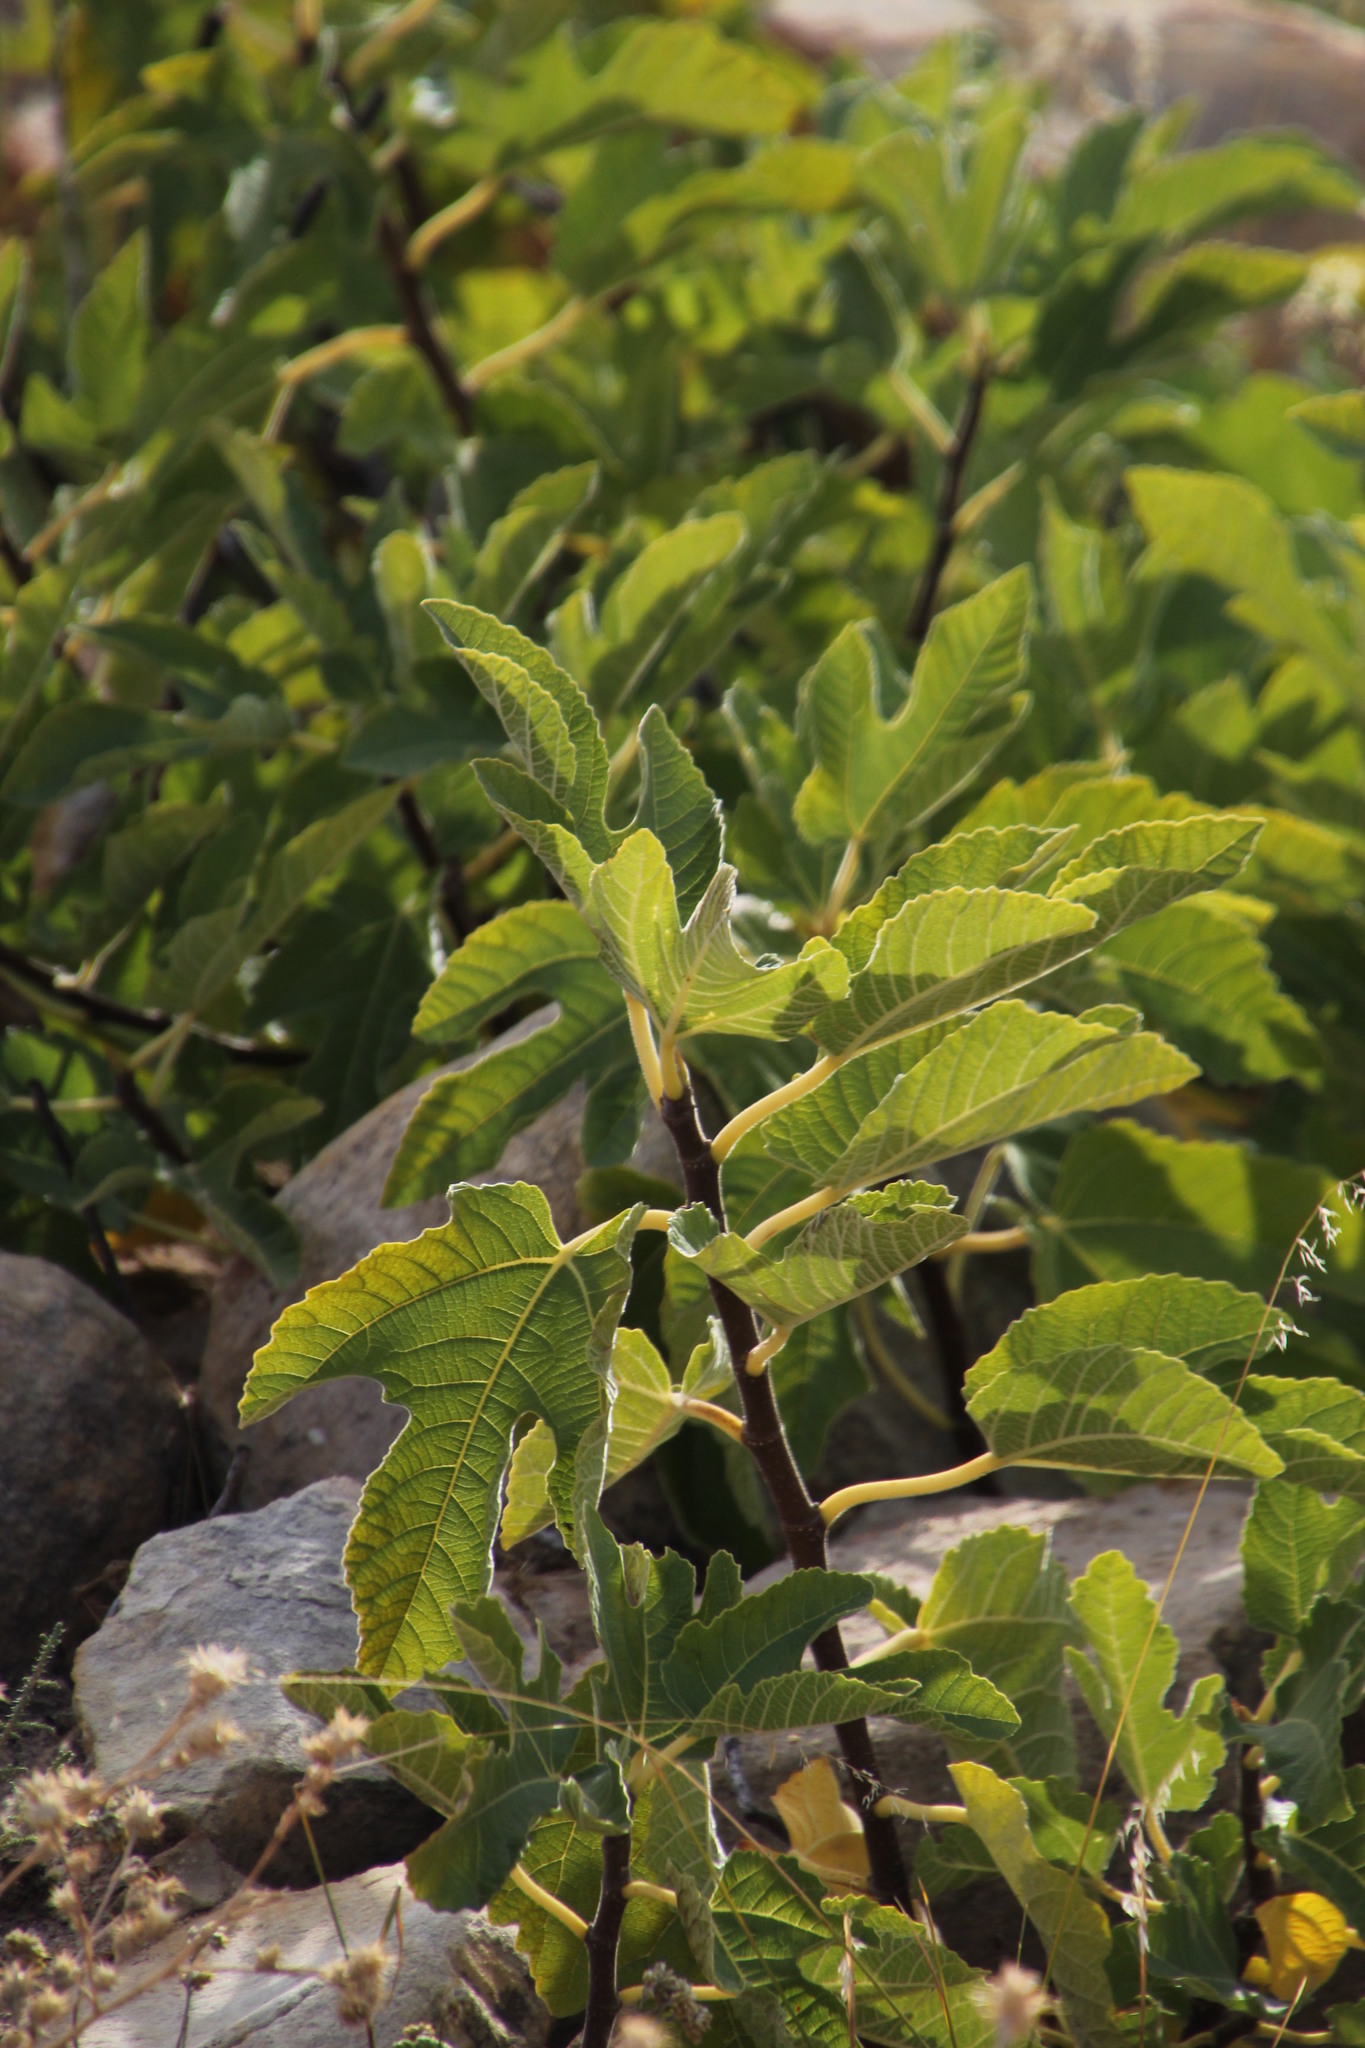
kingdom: Plantae
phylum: Tracheophyta
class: Magnoliopsida
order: Rosales
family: Moraceae
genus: Ficus
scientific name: Ficus carica
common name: Fig
